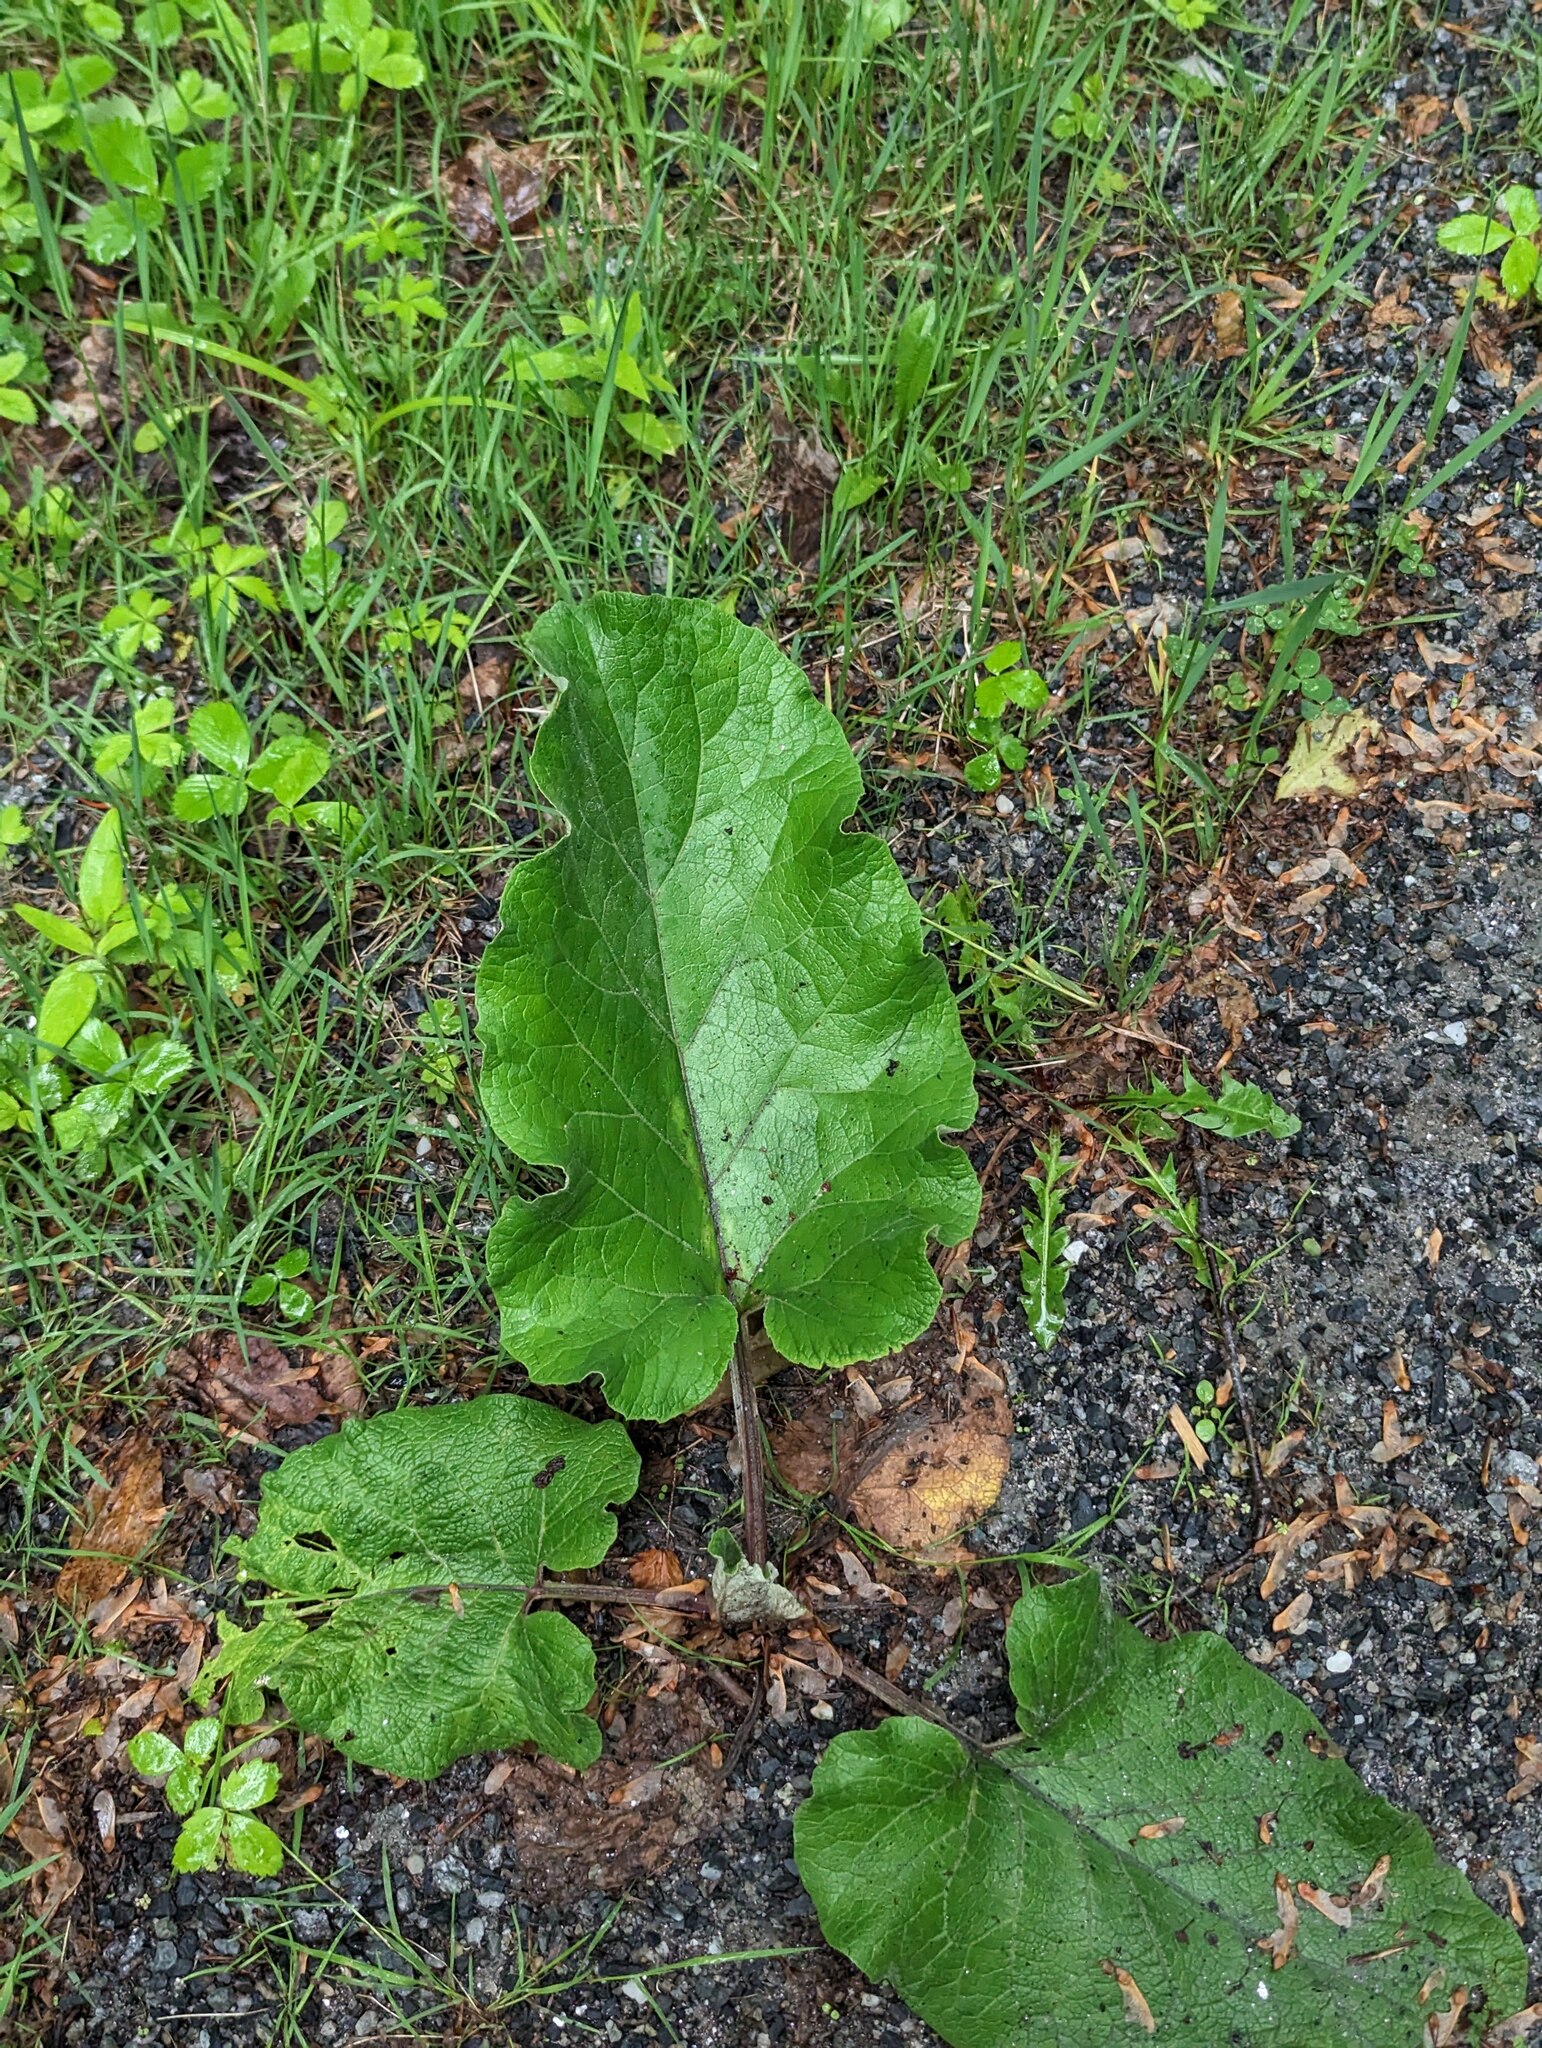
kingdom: Plantae
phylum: Tracheophyta
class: Magnoliopsida
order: Asterales
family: Asteraceae
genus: Arctium
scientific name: Arctium
